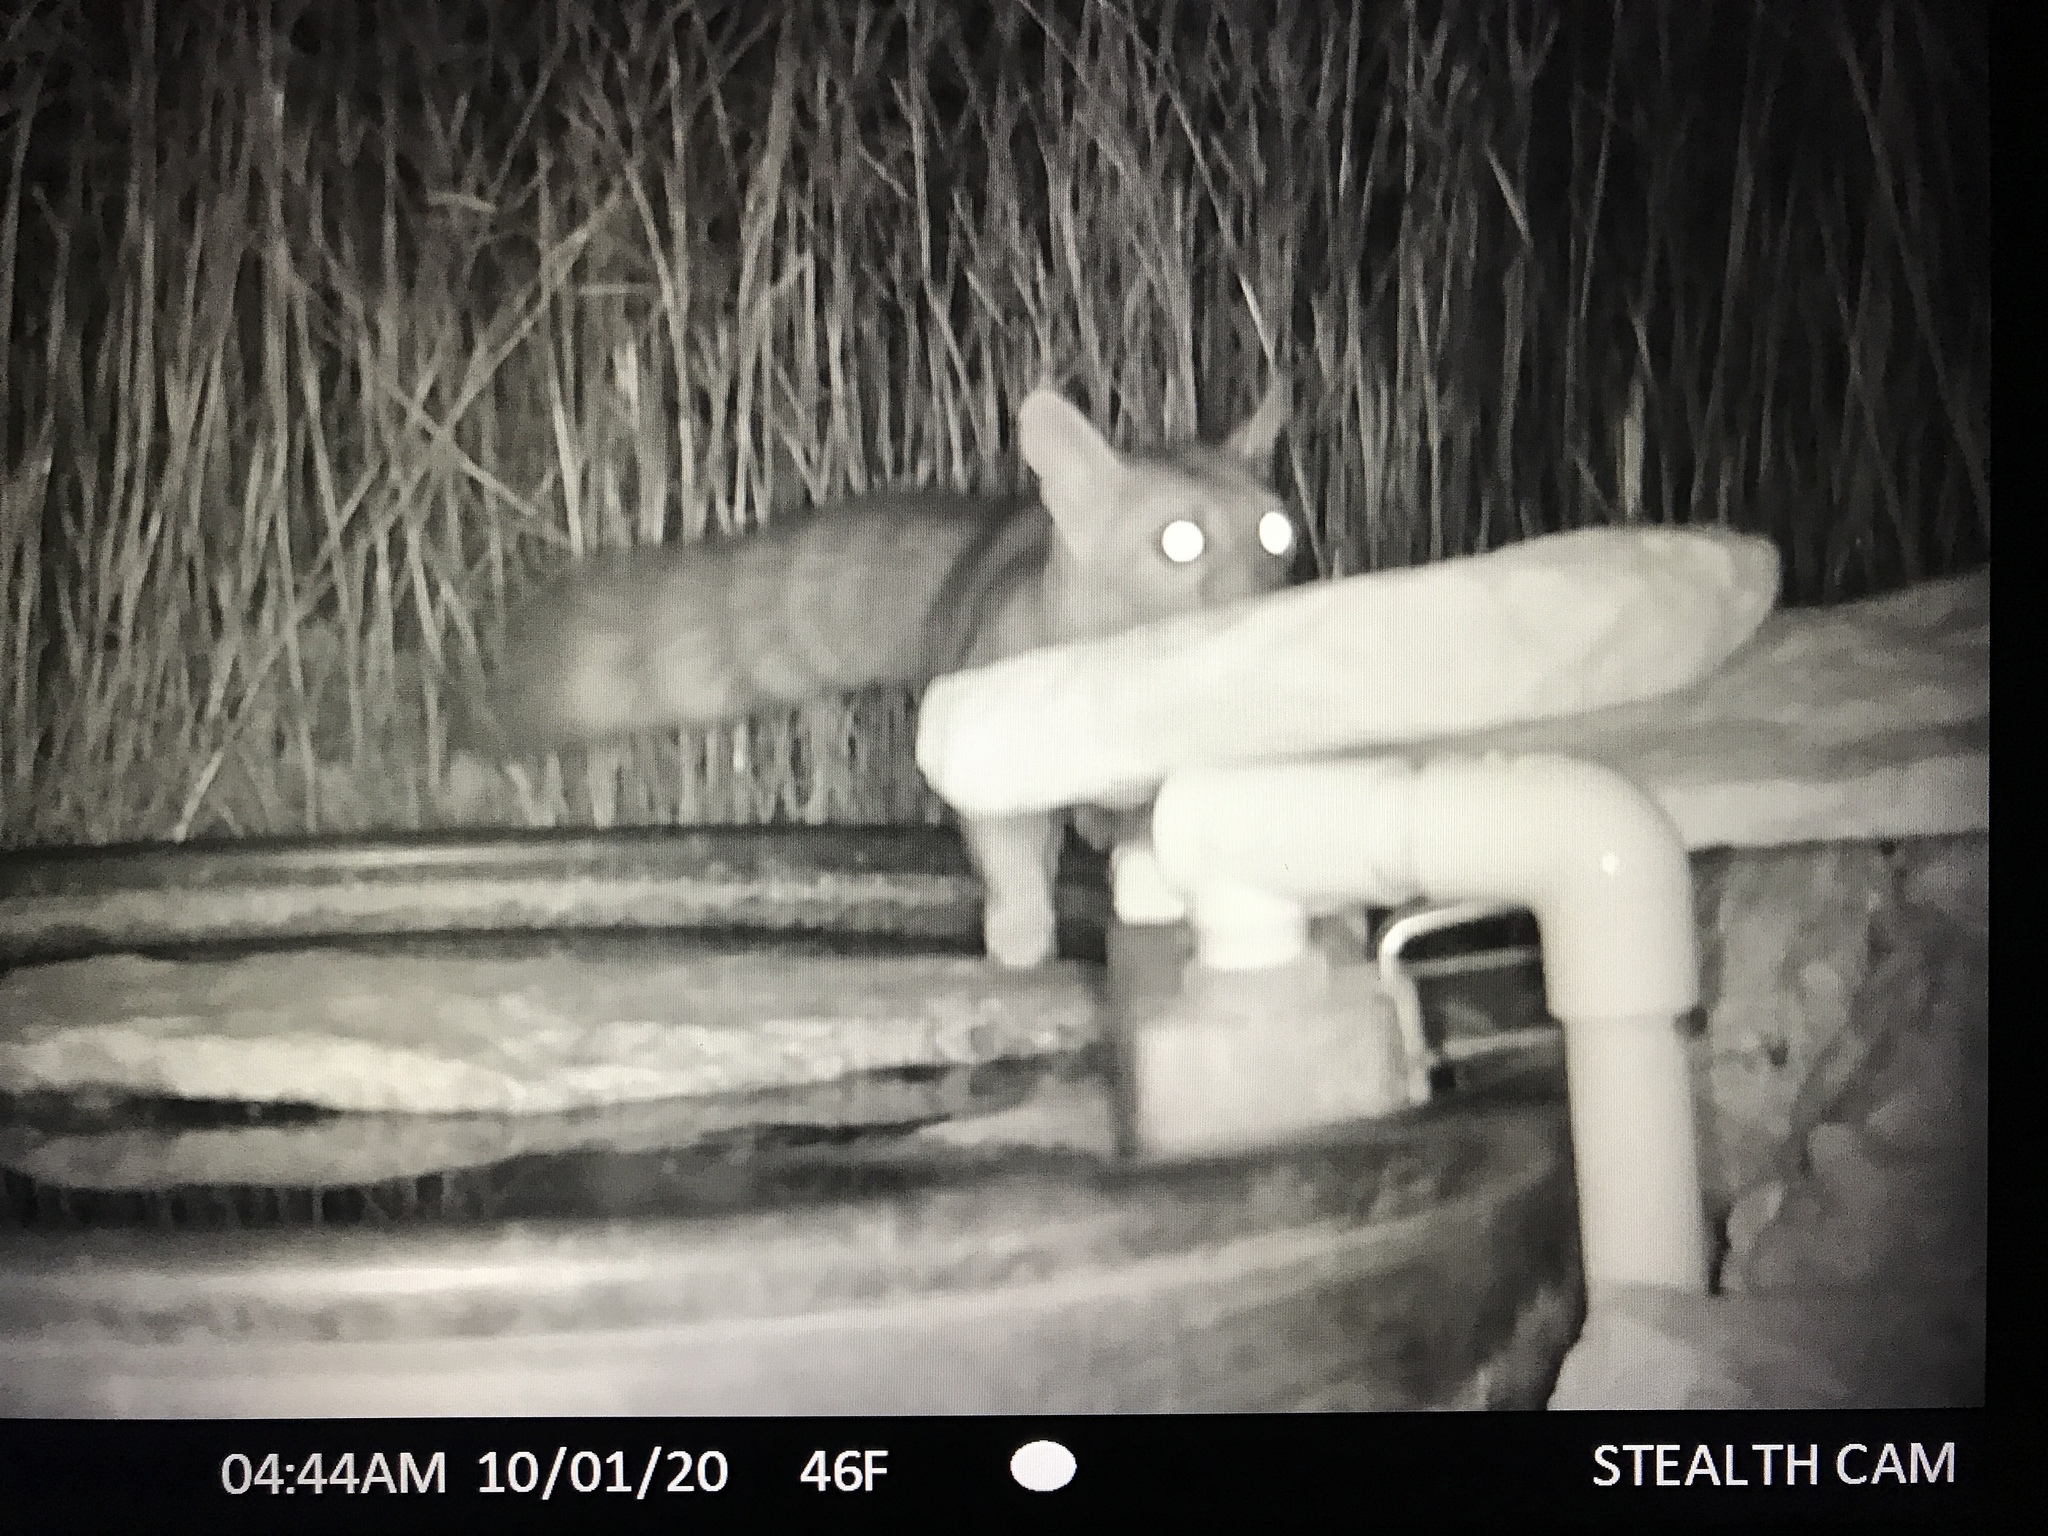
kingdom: Animalia
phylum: Chordata
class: Mammalia
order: Carnivora
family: Procyonidae
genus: Bassariscus
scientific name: Bassariscus astutus
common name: Ringtail
